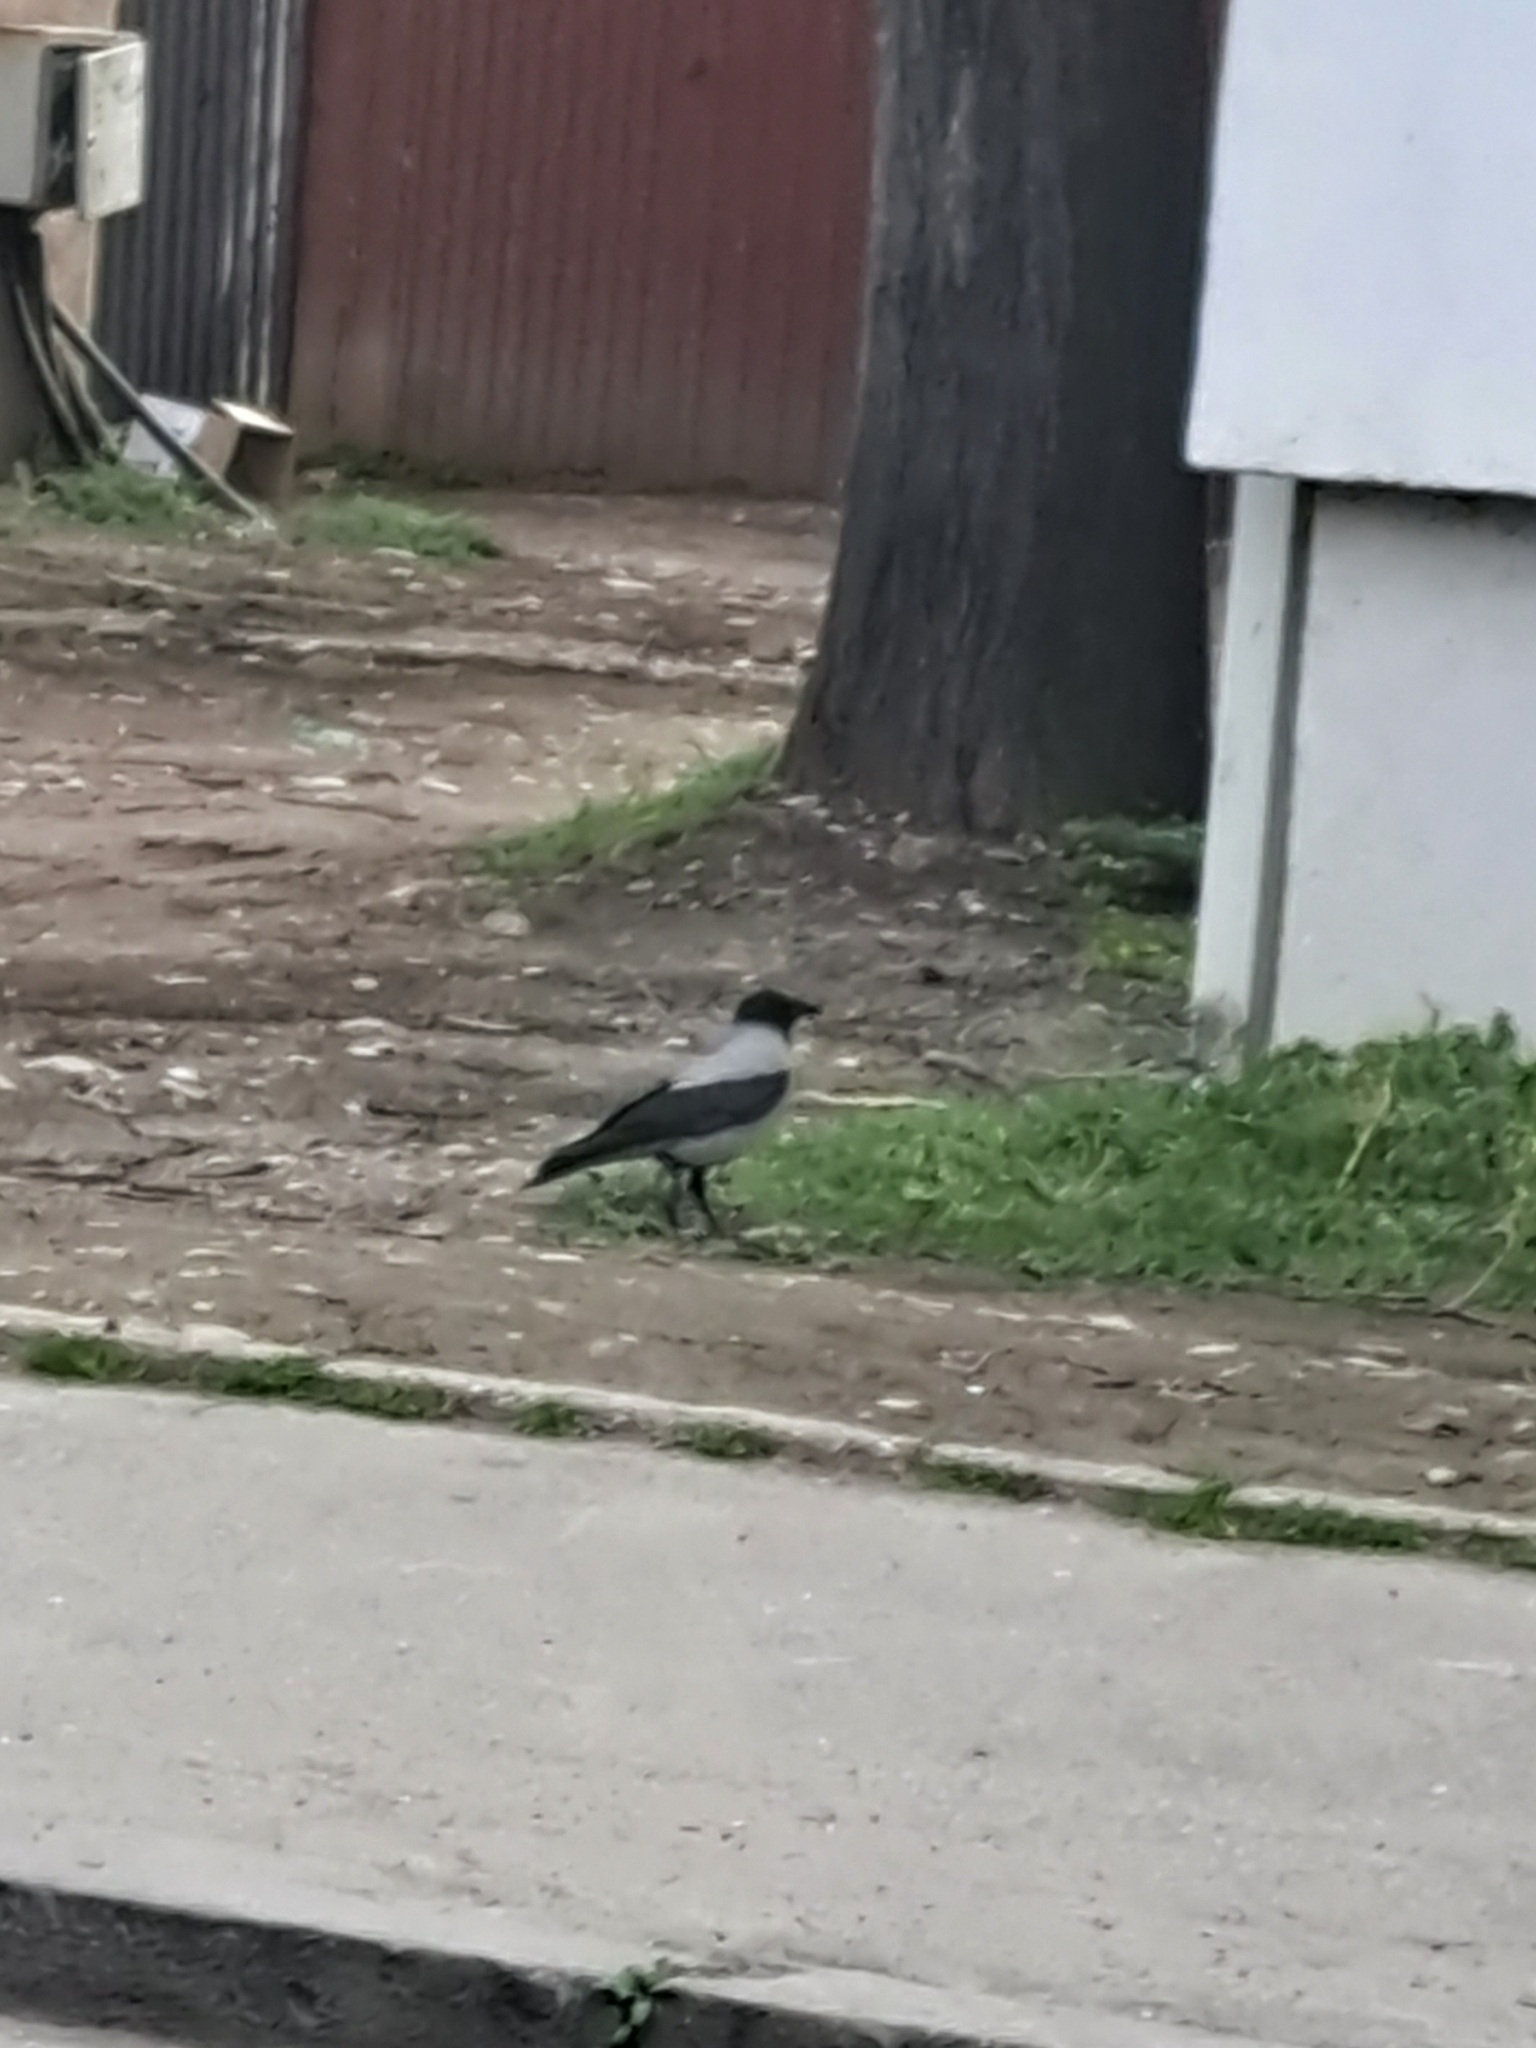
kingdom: Animalia
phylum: Chordata
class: Aves
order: Passeriformes
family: Corvidae
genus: Corvus
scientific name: Corvus cornix
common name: Hooded crow
